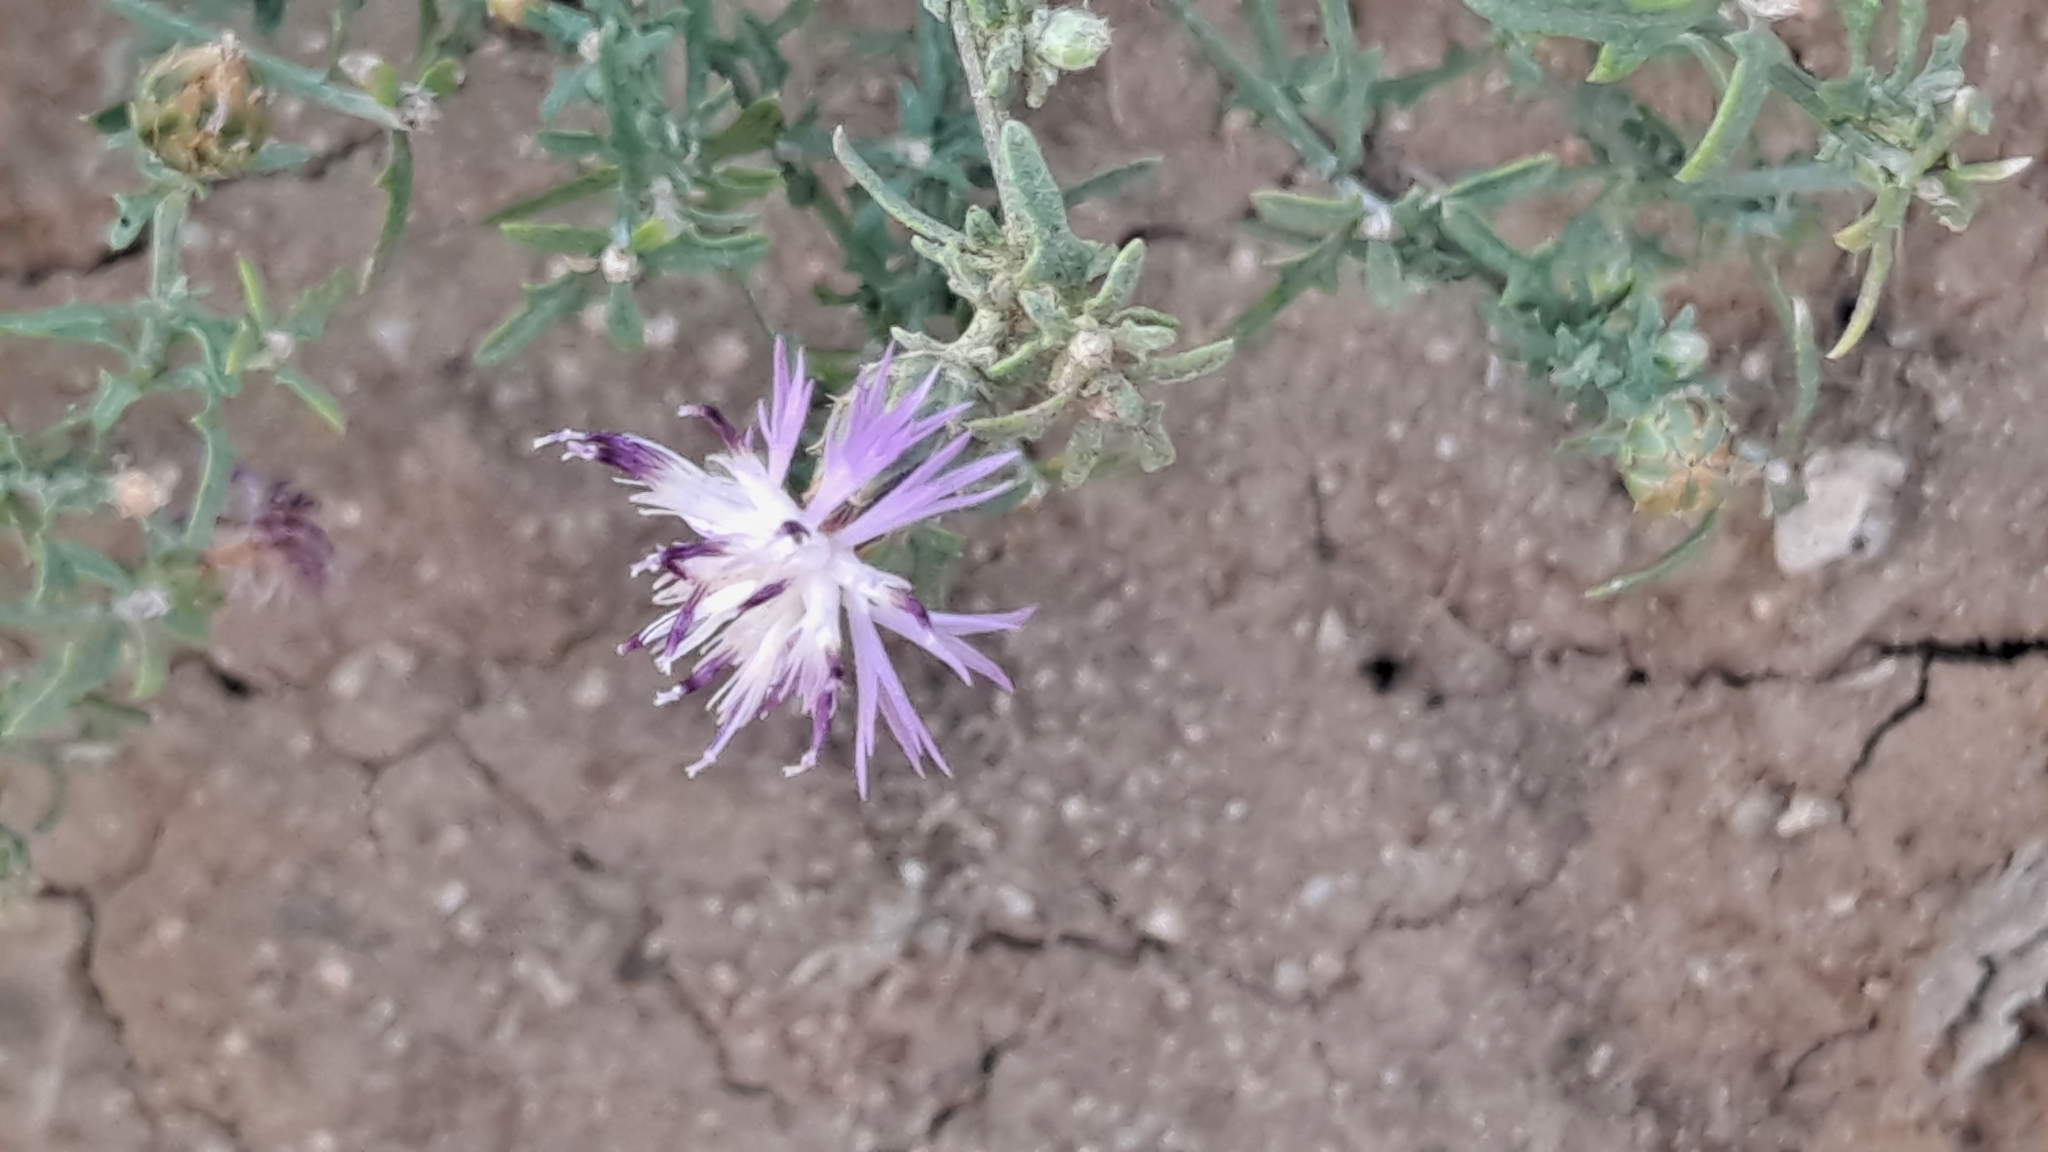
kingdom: Plantae
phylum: Tracheophyta
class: Magnoliopsida
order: Asterales
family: Asteraceae
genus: Centaurea
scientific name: Centaurea aspera
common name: Rough star-thistle
